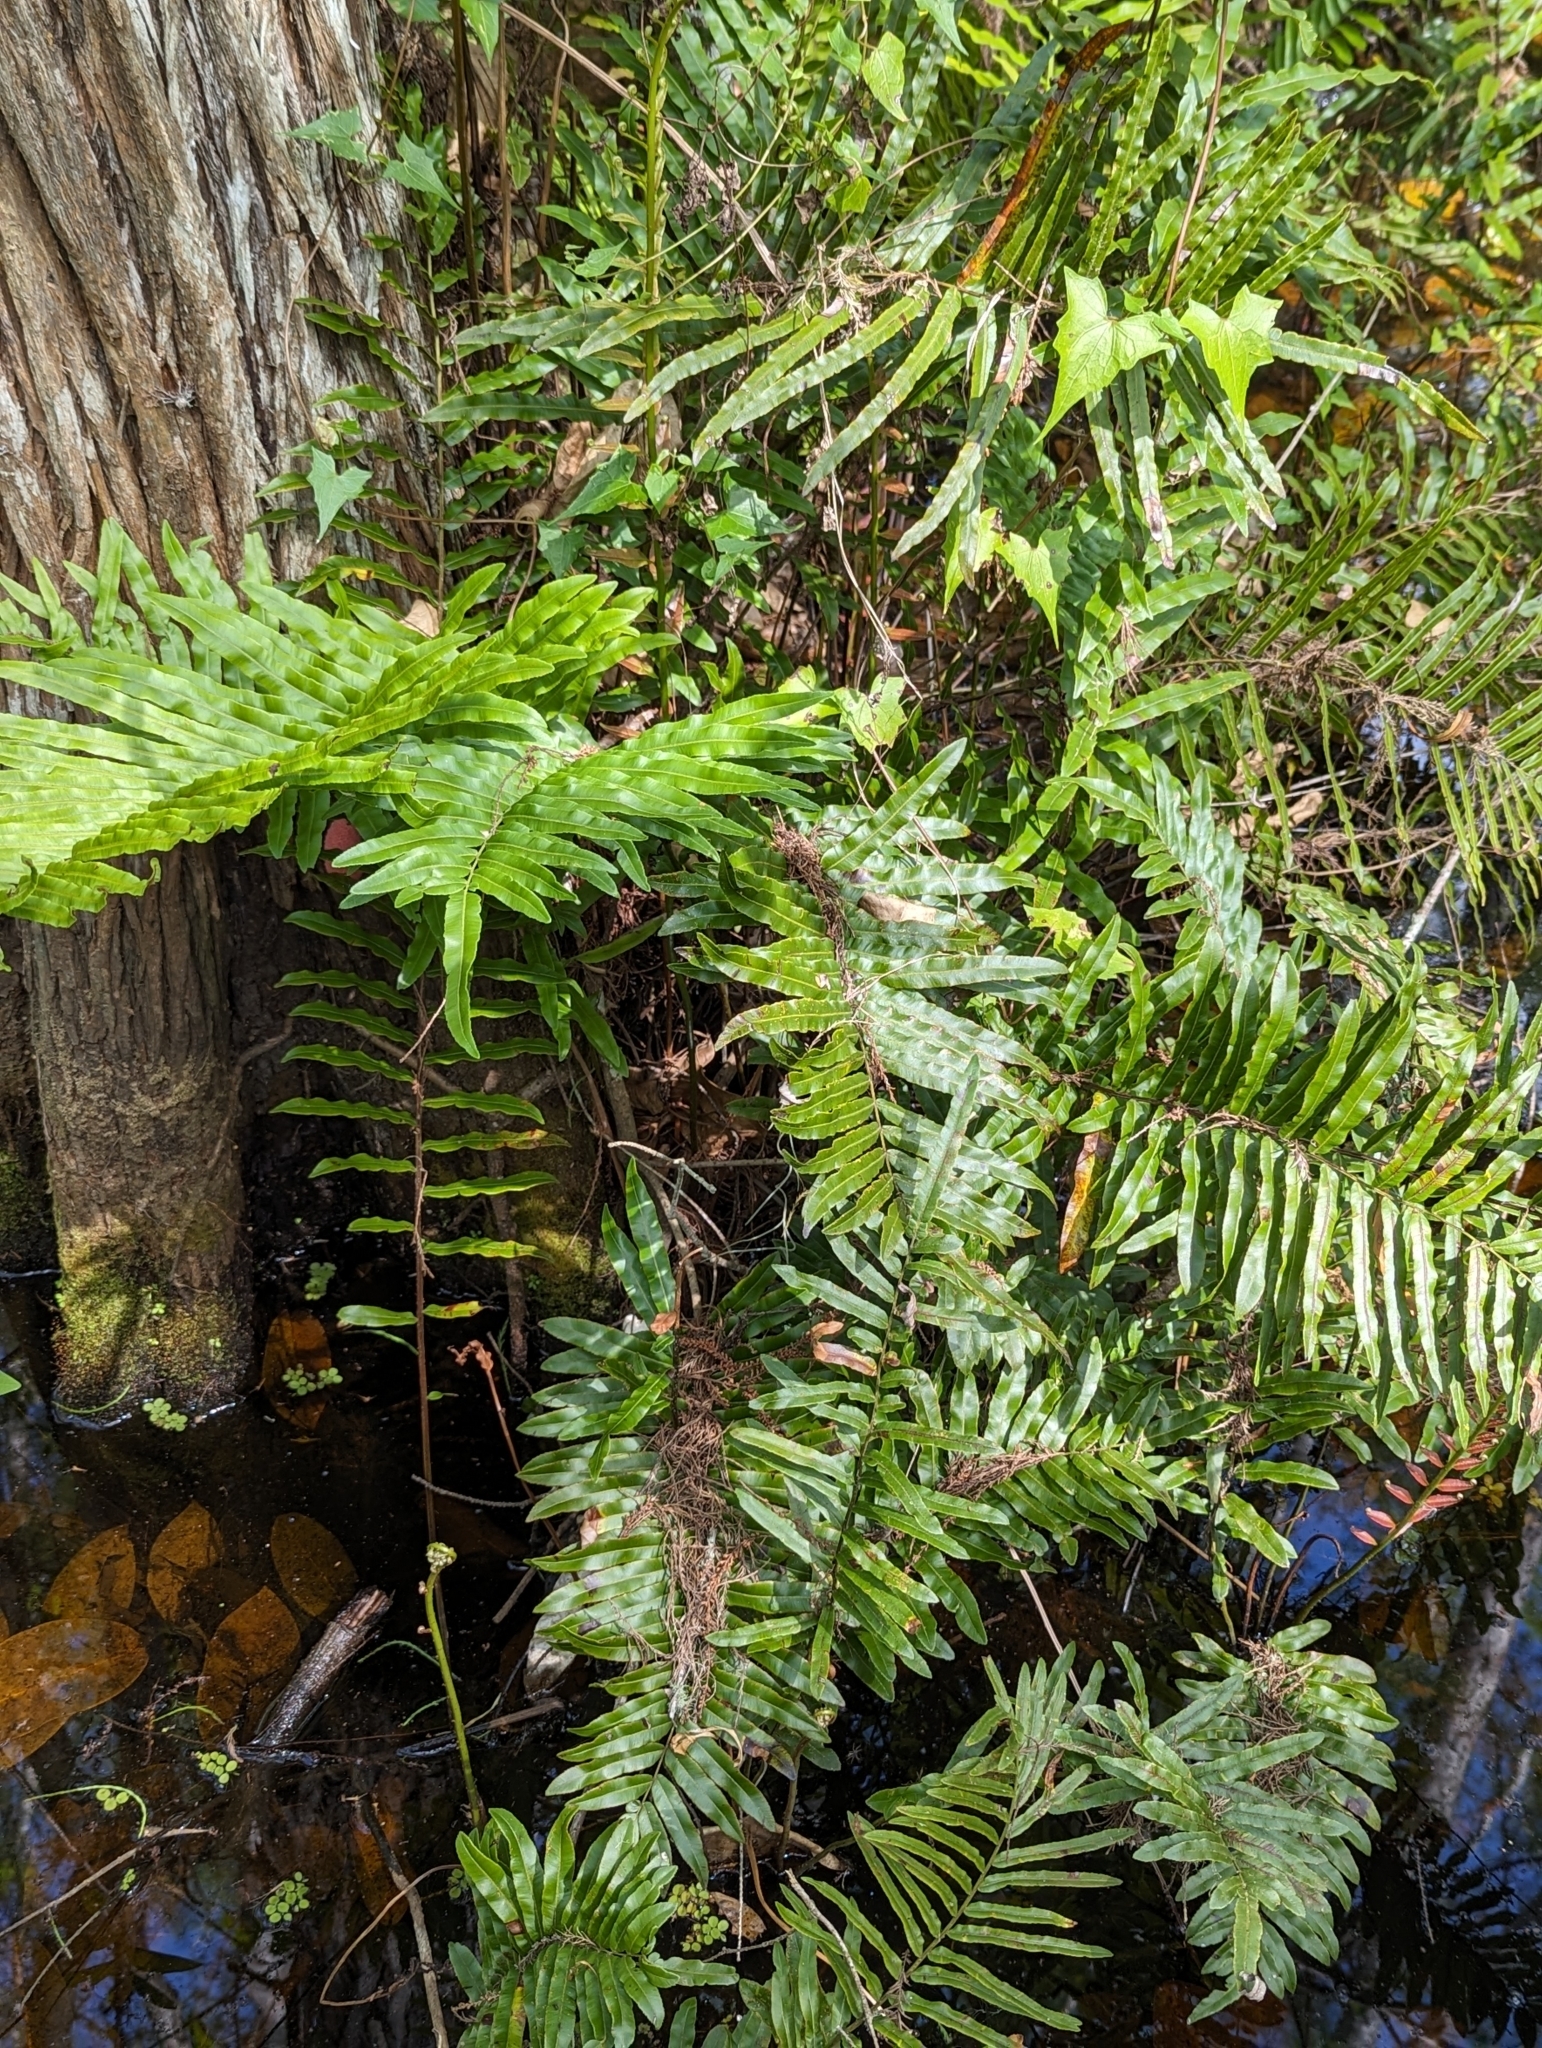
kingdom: Plantae
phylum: Tracheophyta
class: Polypodiopsida
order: Polypodiales
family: Blechnaceae
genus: Telmatoblechnum
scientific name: Telmatoblechnum serrulatum
